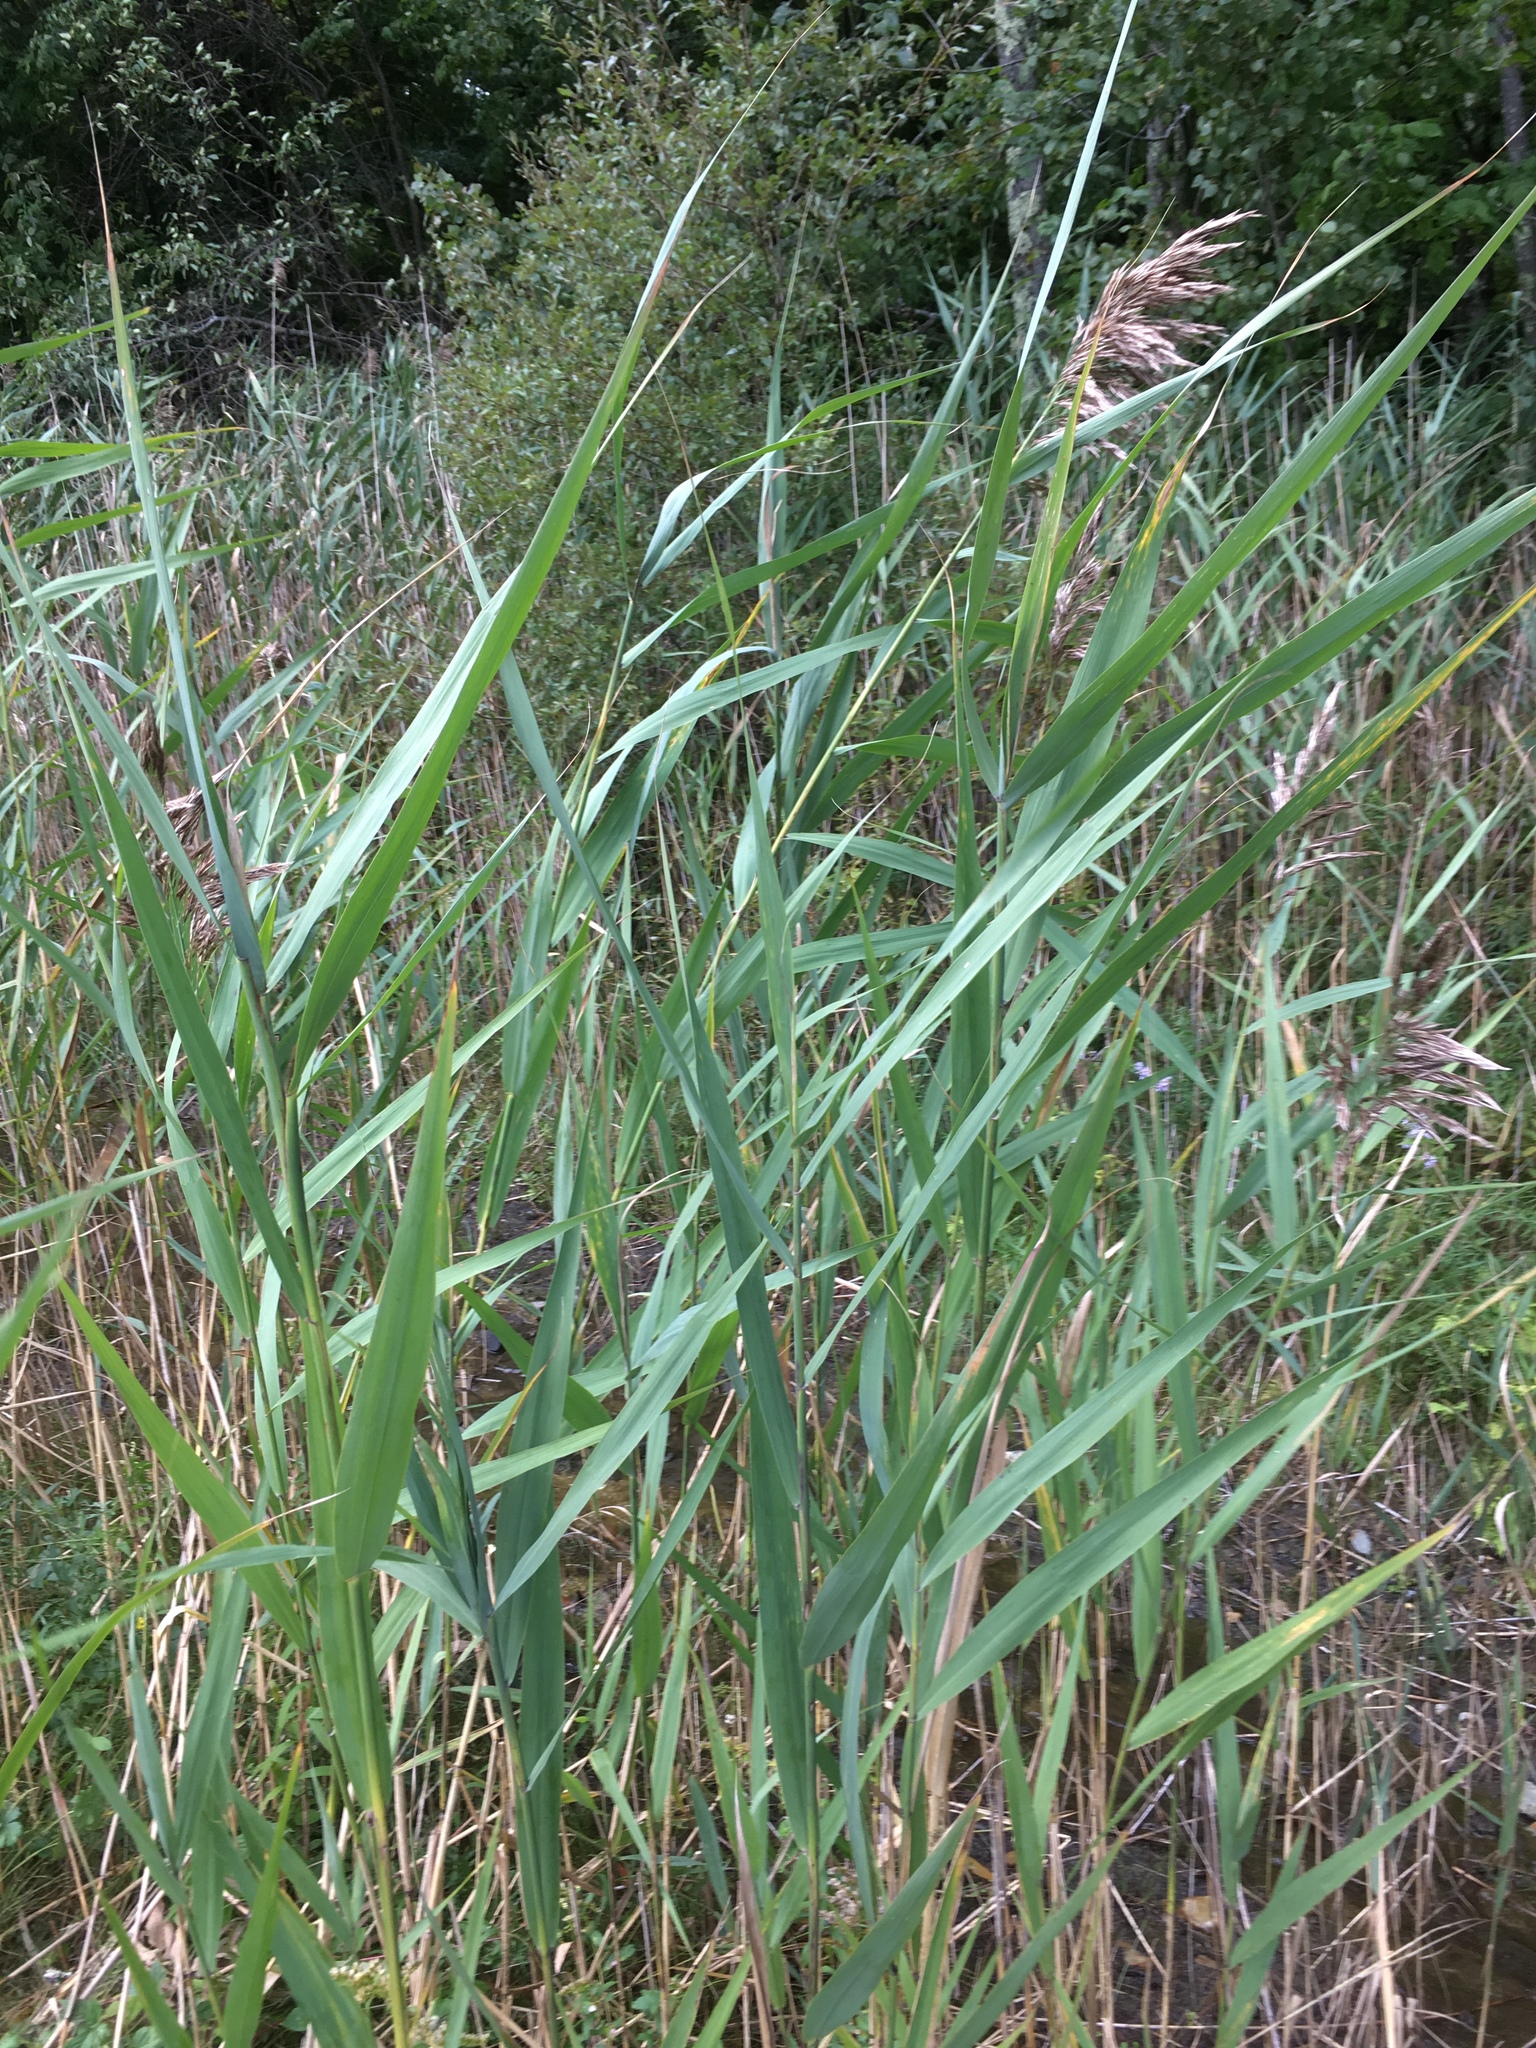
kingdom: Plantae
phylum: Tracheophyta
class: Liliopsida
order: Poales
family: Poaceae
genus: Phragmites
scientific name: Phragmites australis
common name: Common reed
